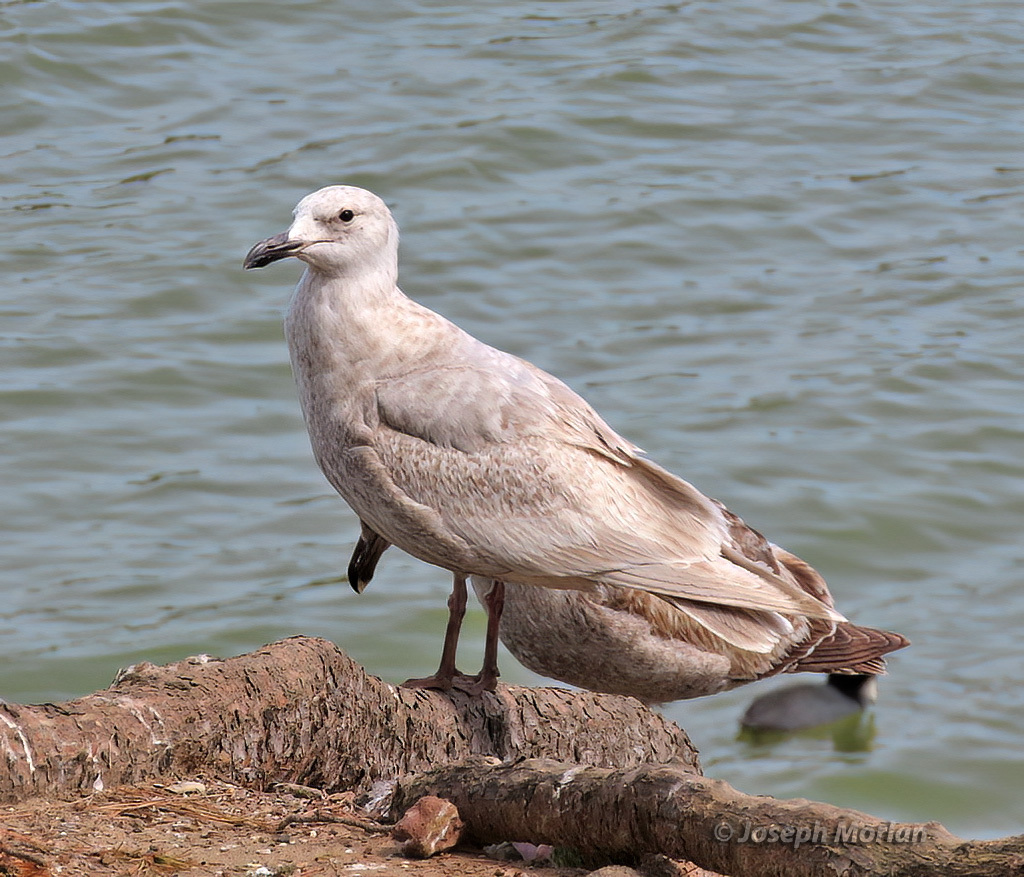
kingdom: Animalia
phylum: Chordata
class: Aves
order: Charadriiformes
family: Laridae
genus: Larus
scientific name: Larus glaucescens
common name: Glaucous-winged gull
